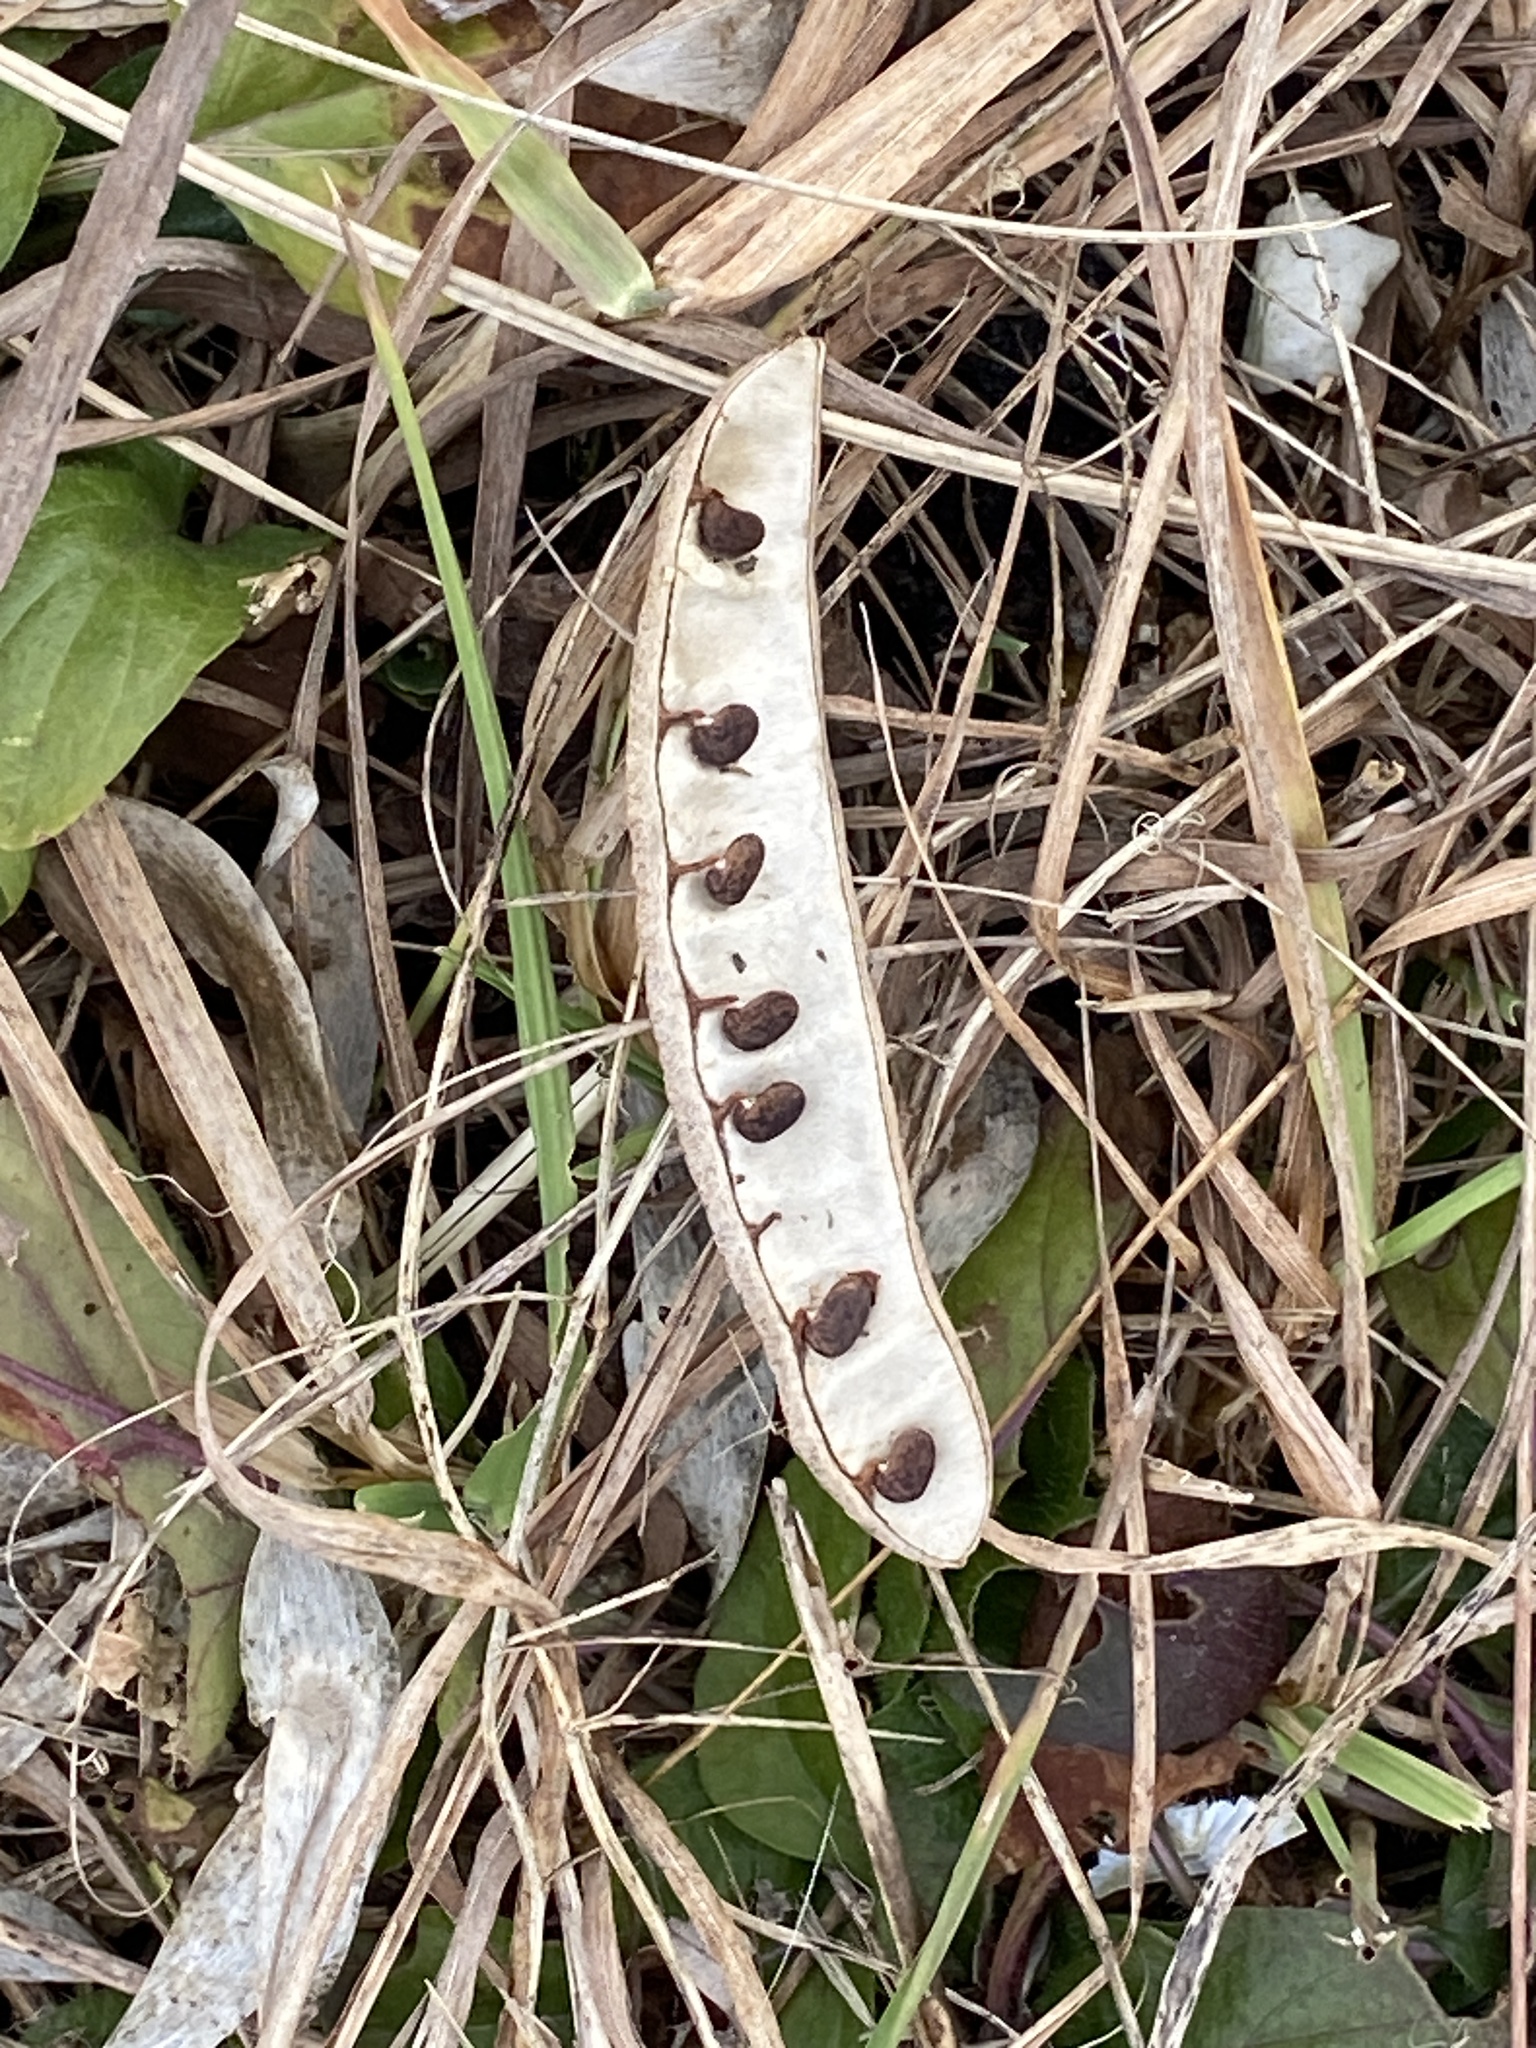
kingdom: Plantae
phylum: Tracheophyta
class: Magnoliopsida
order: Fabales
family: Fabaceae
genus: Robinia
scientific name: Robinia pseudoacacia
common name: Black locust
